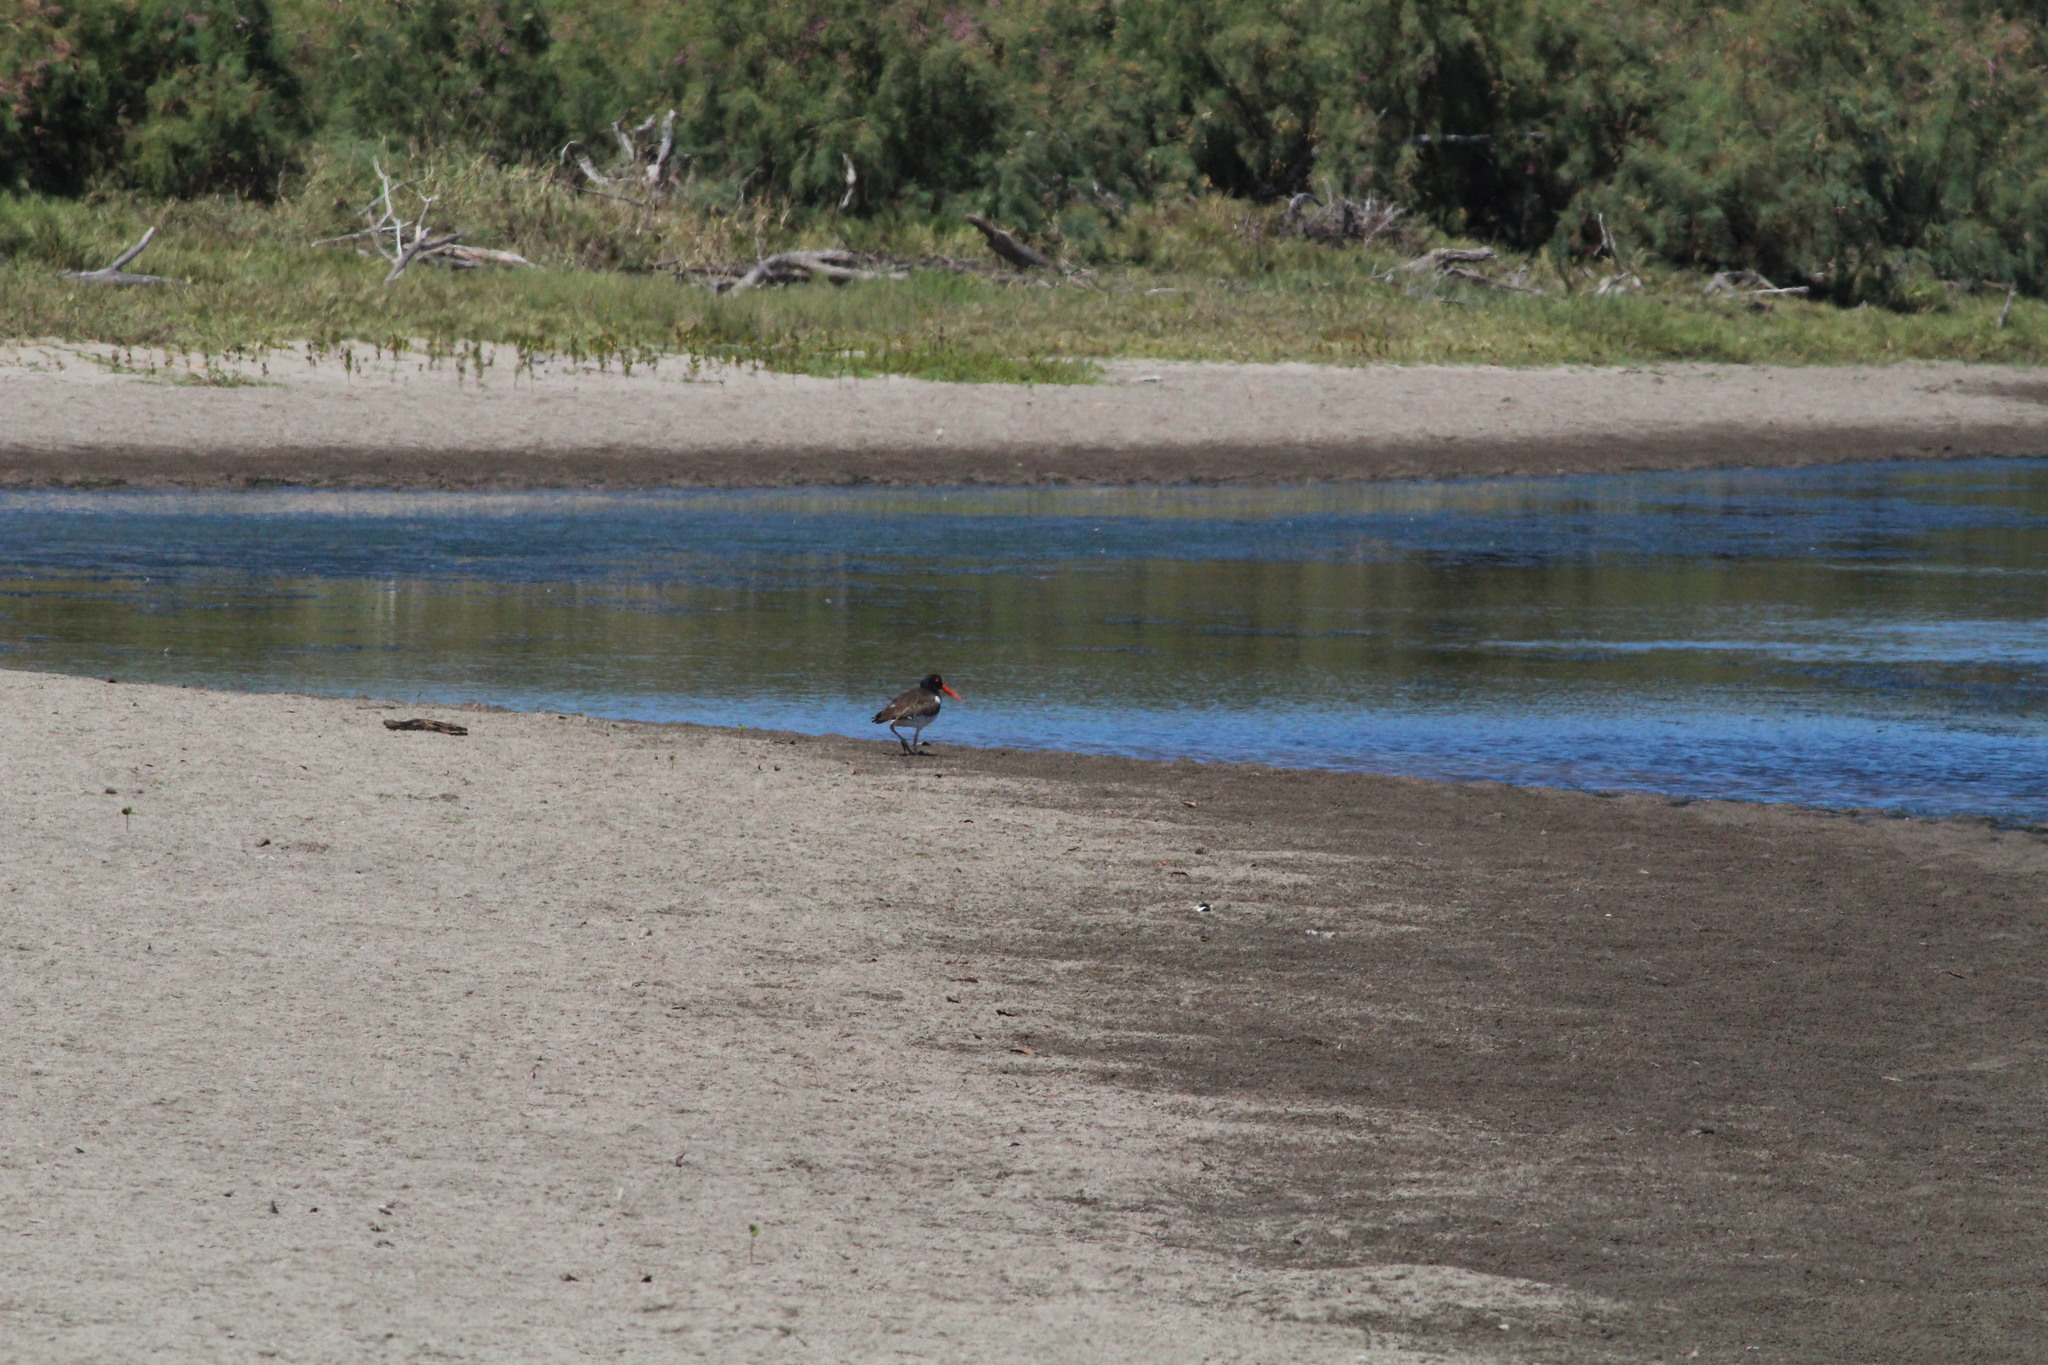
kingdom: Animalia
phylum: Chordata
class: Aves
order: Charadriiformes
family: Haematopodidae
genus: Haematopus
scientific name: Haematopus palliatus
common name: American oystercatcher
